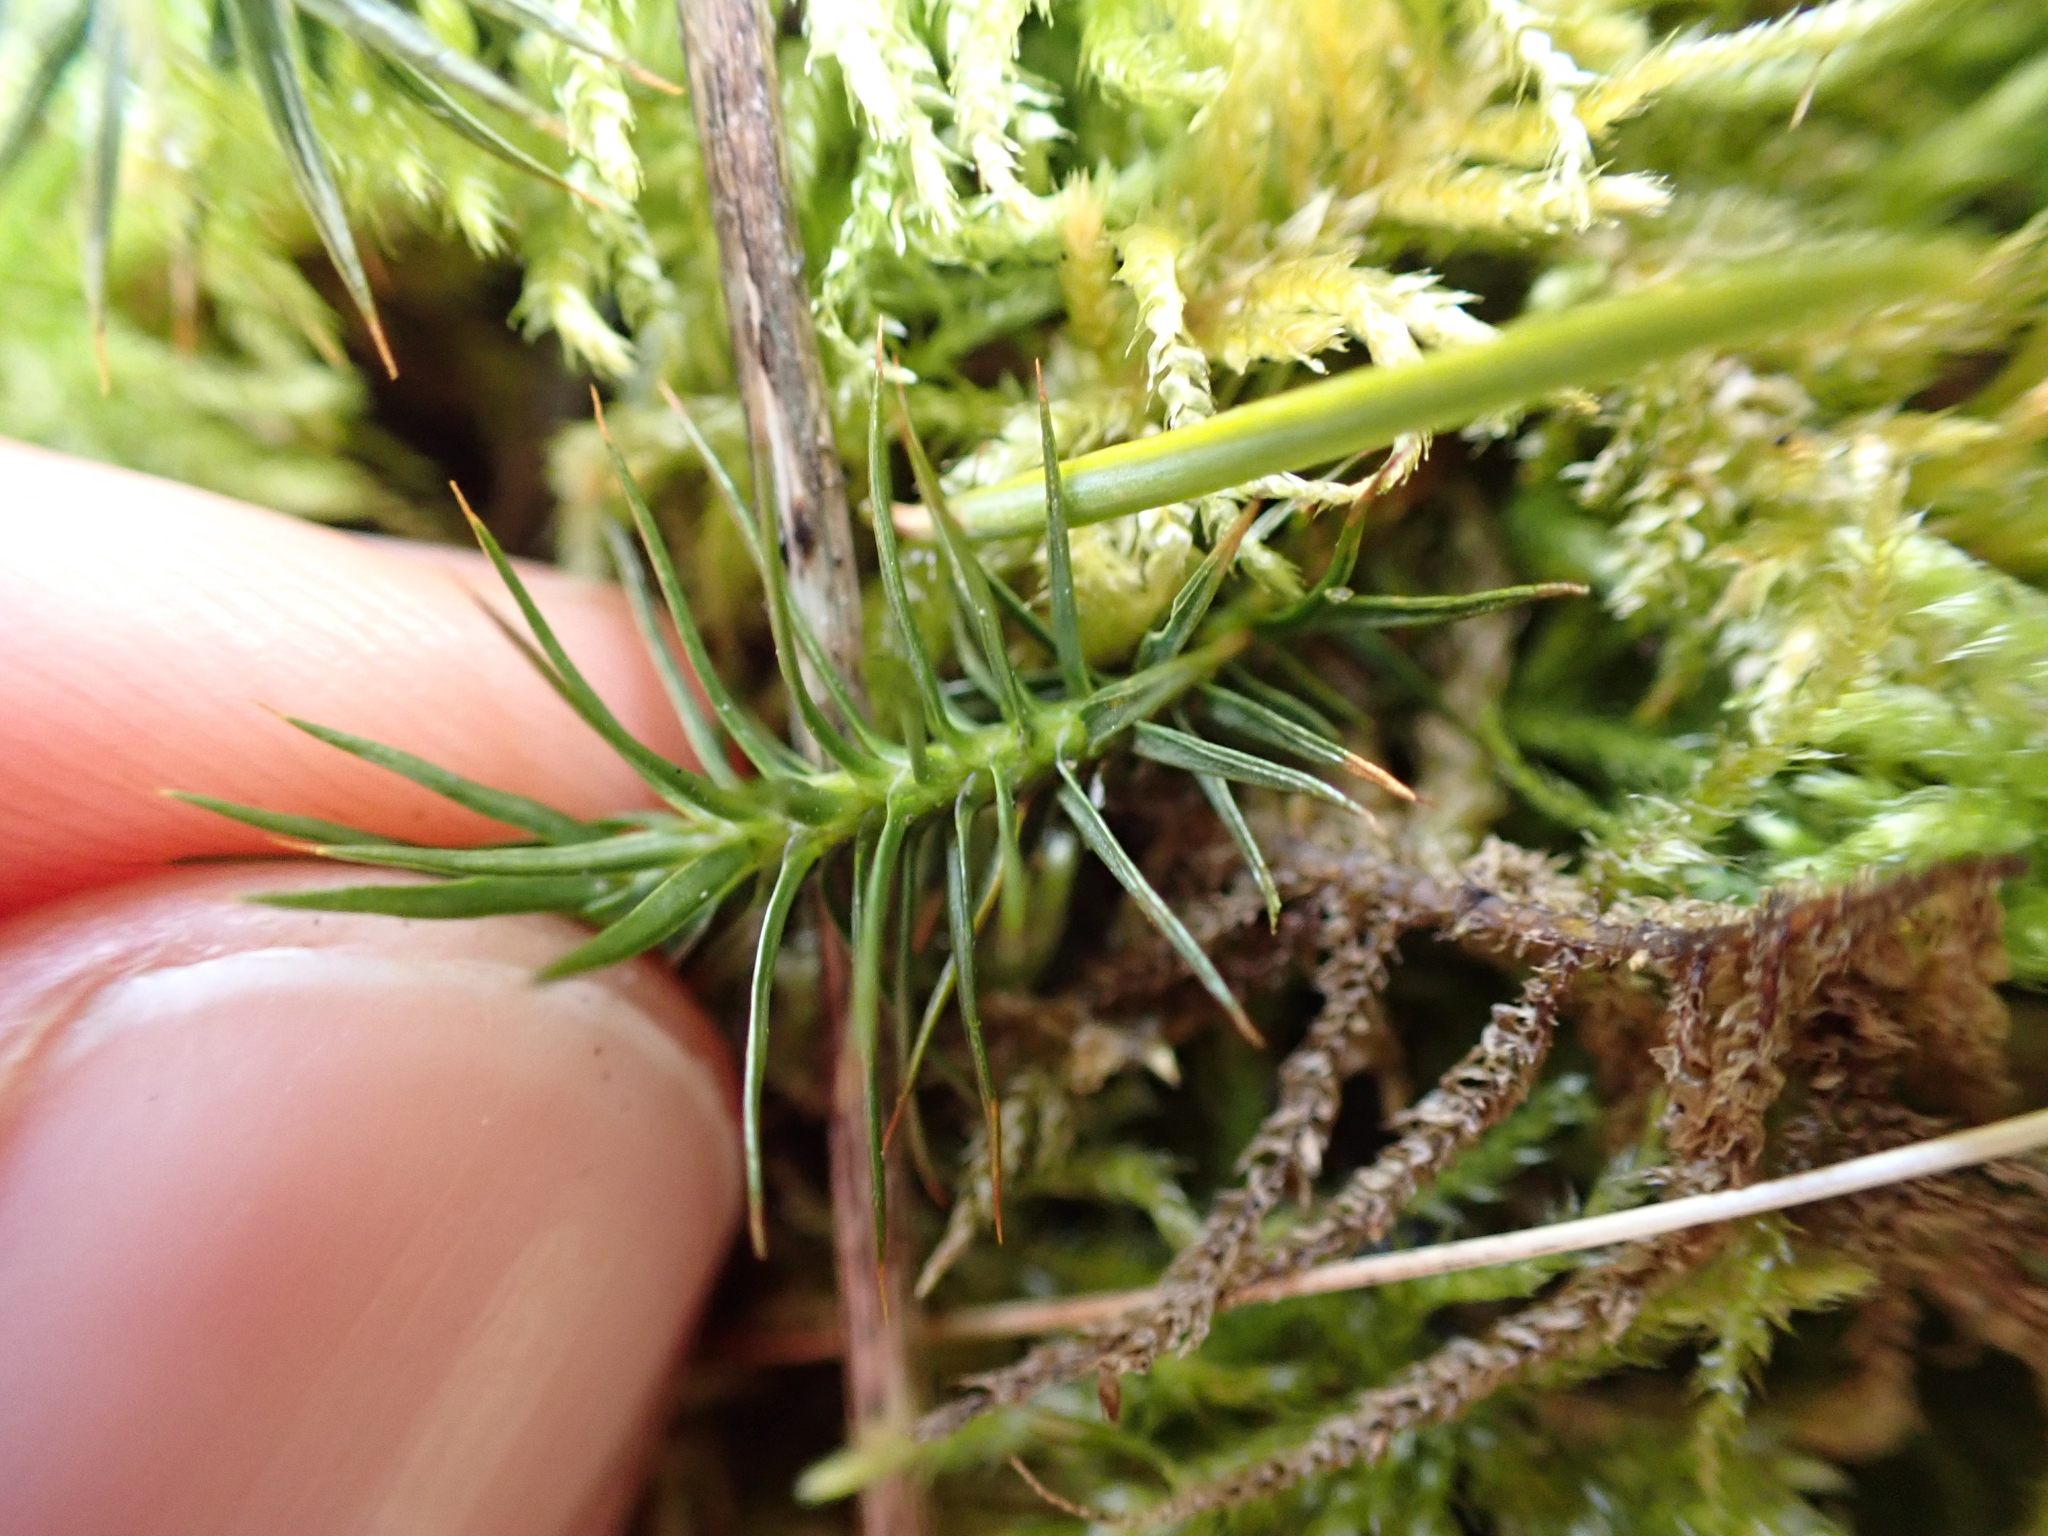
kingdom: Plantae
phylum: Bryophyta
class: Polytrichopsida
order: Polytrichales
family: Polytrichaceae
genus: Polytrichum
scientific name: Polytrichum juniperinum
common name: Juniper haircap moss
